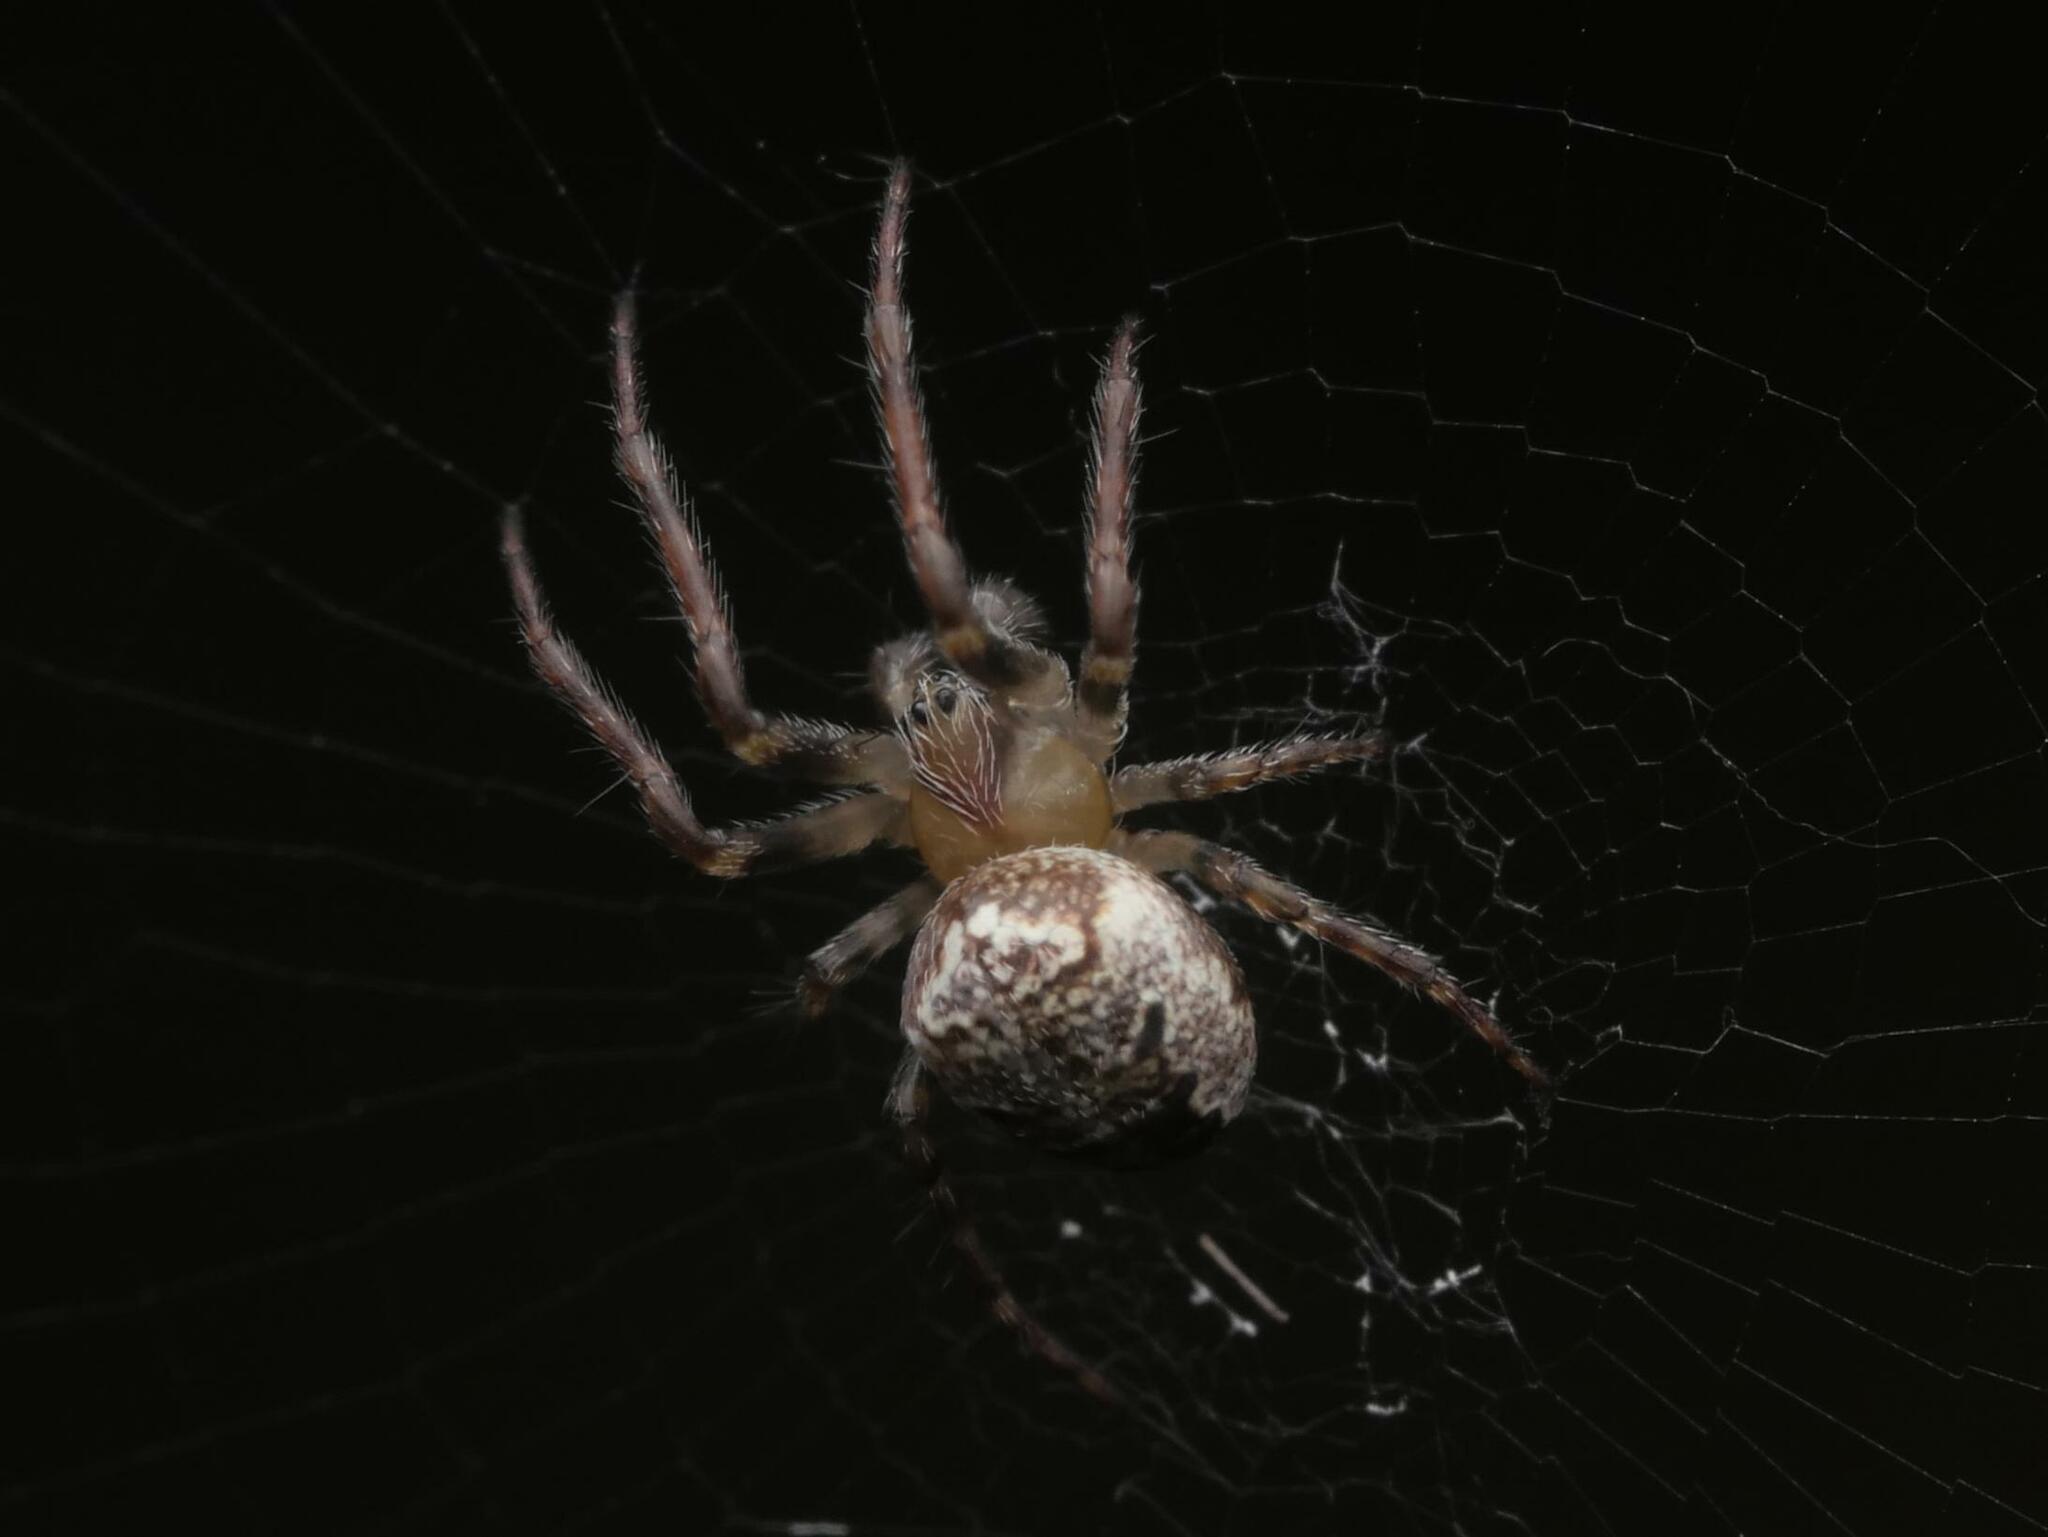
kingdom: Animalia
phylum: Arthropoda
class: Arachnida
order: Araneae
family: Araneidae
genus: Zilla
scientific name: Zilla diodia
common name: Zilla diodia
